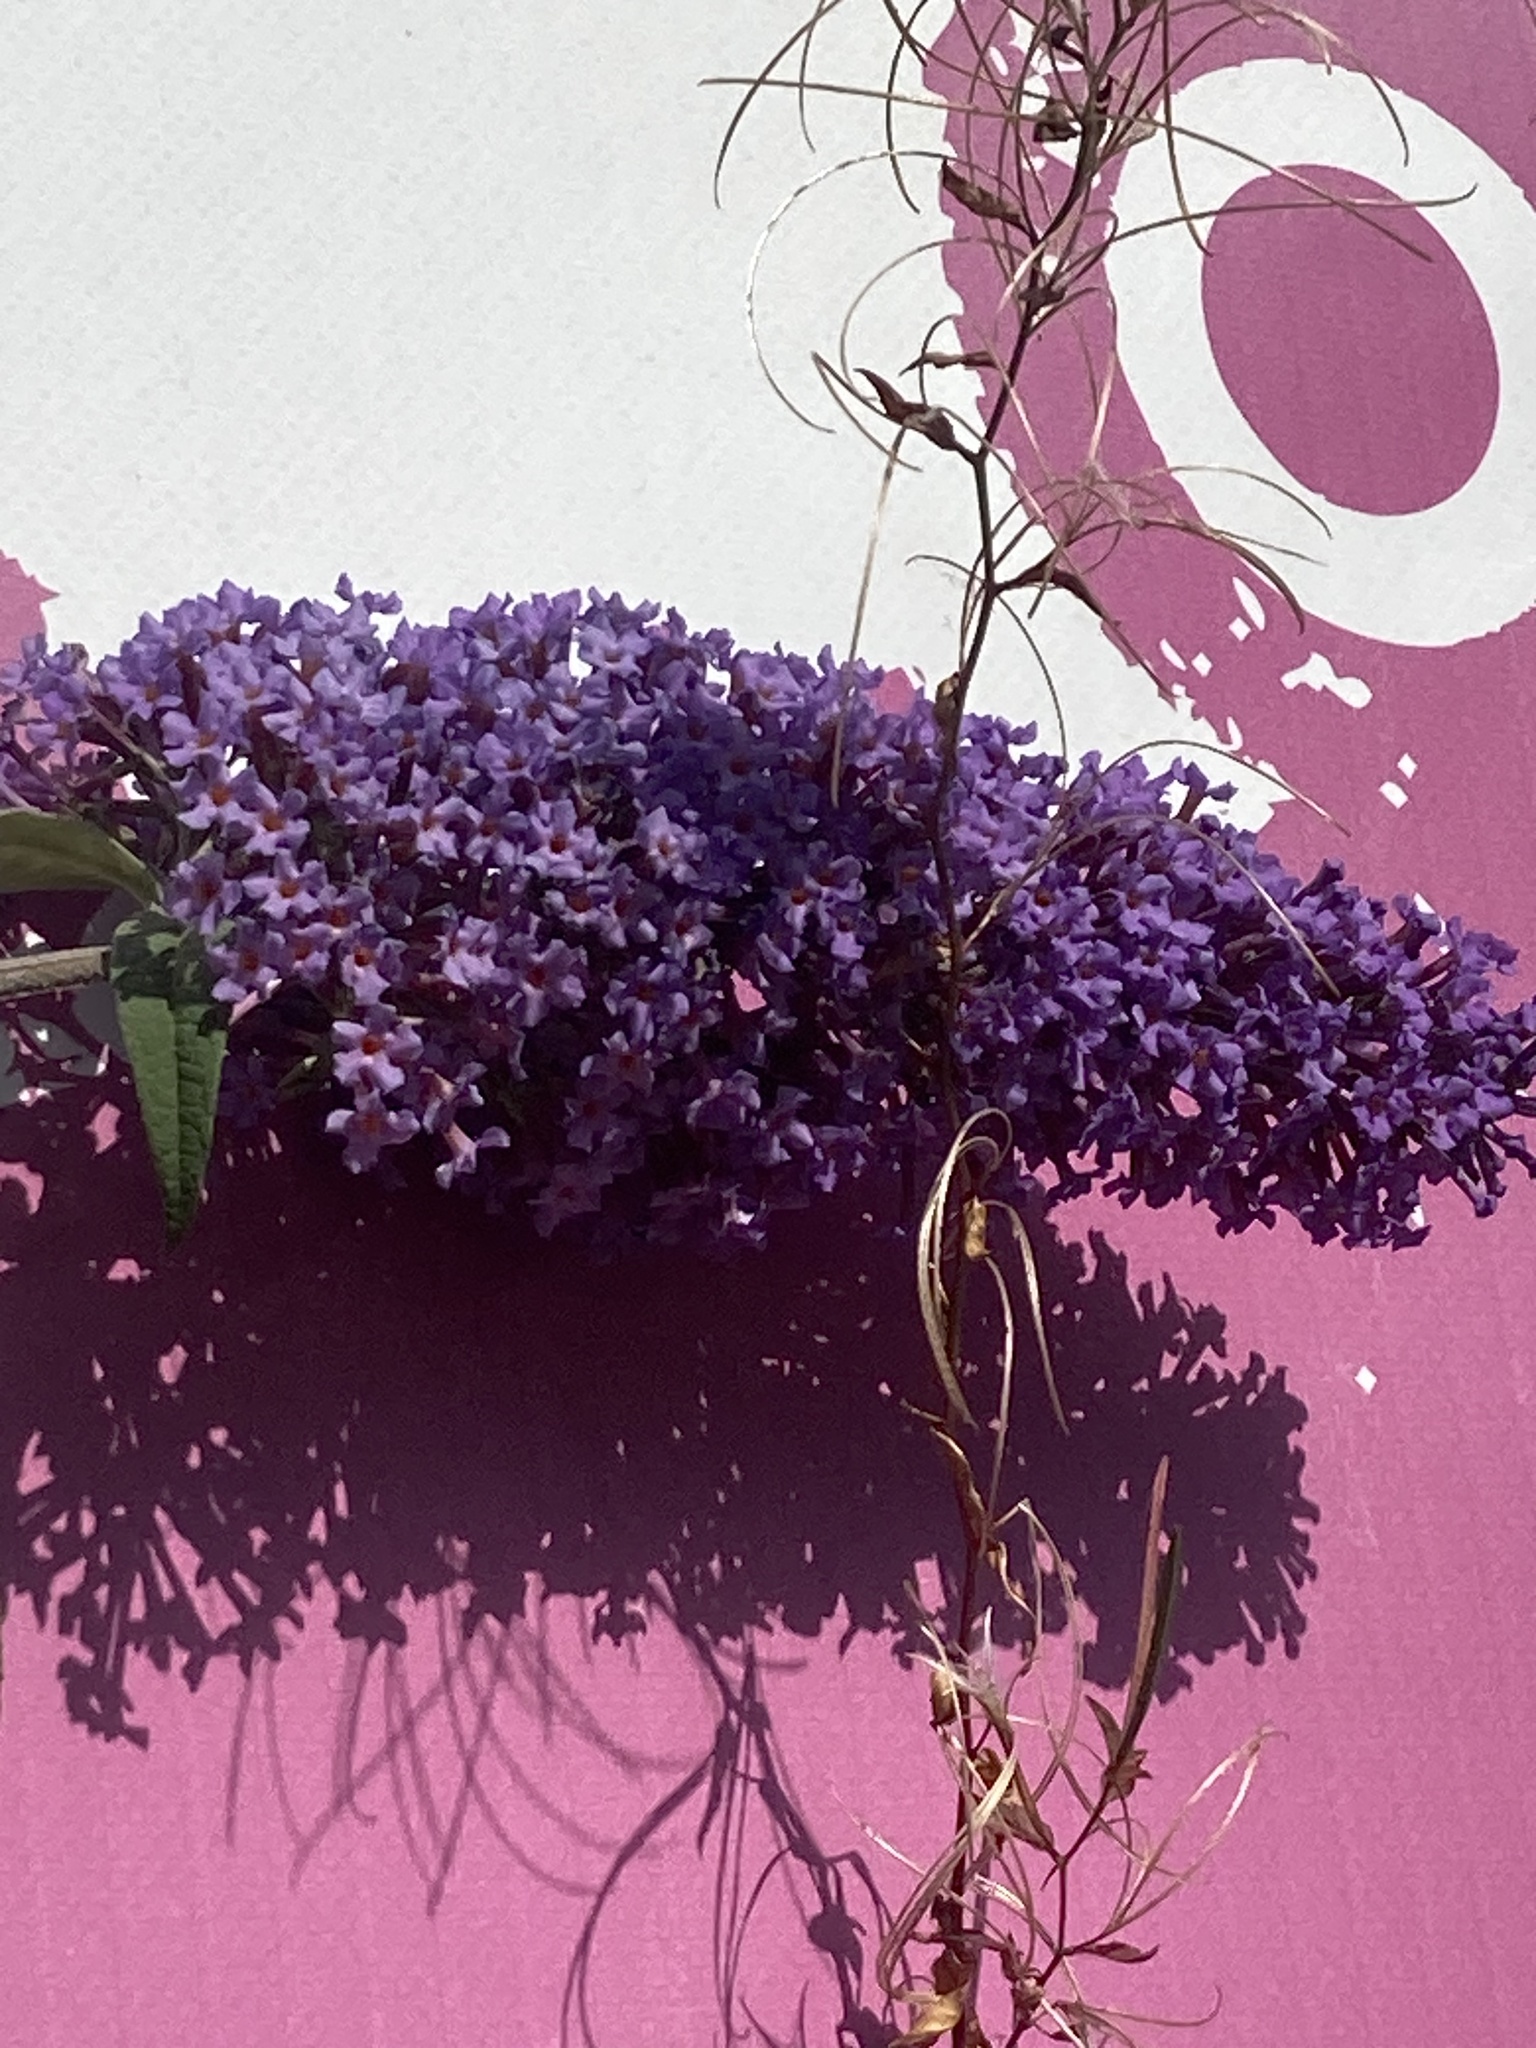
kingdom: Plantae
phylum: Tracheophyta
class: Magnoliopsida
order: Lamiales
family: Scrophulariaceae
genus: Buddleja
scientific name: Buddleja davidii
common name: Butterfly-bush
